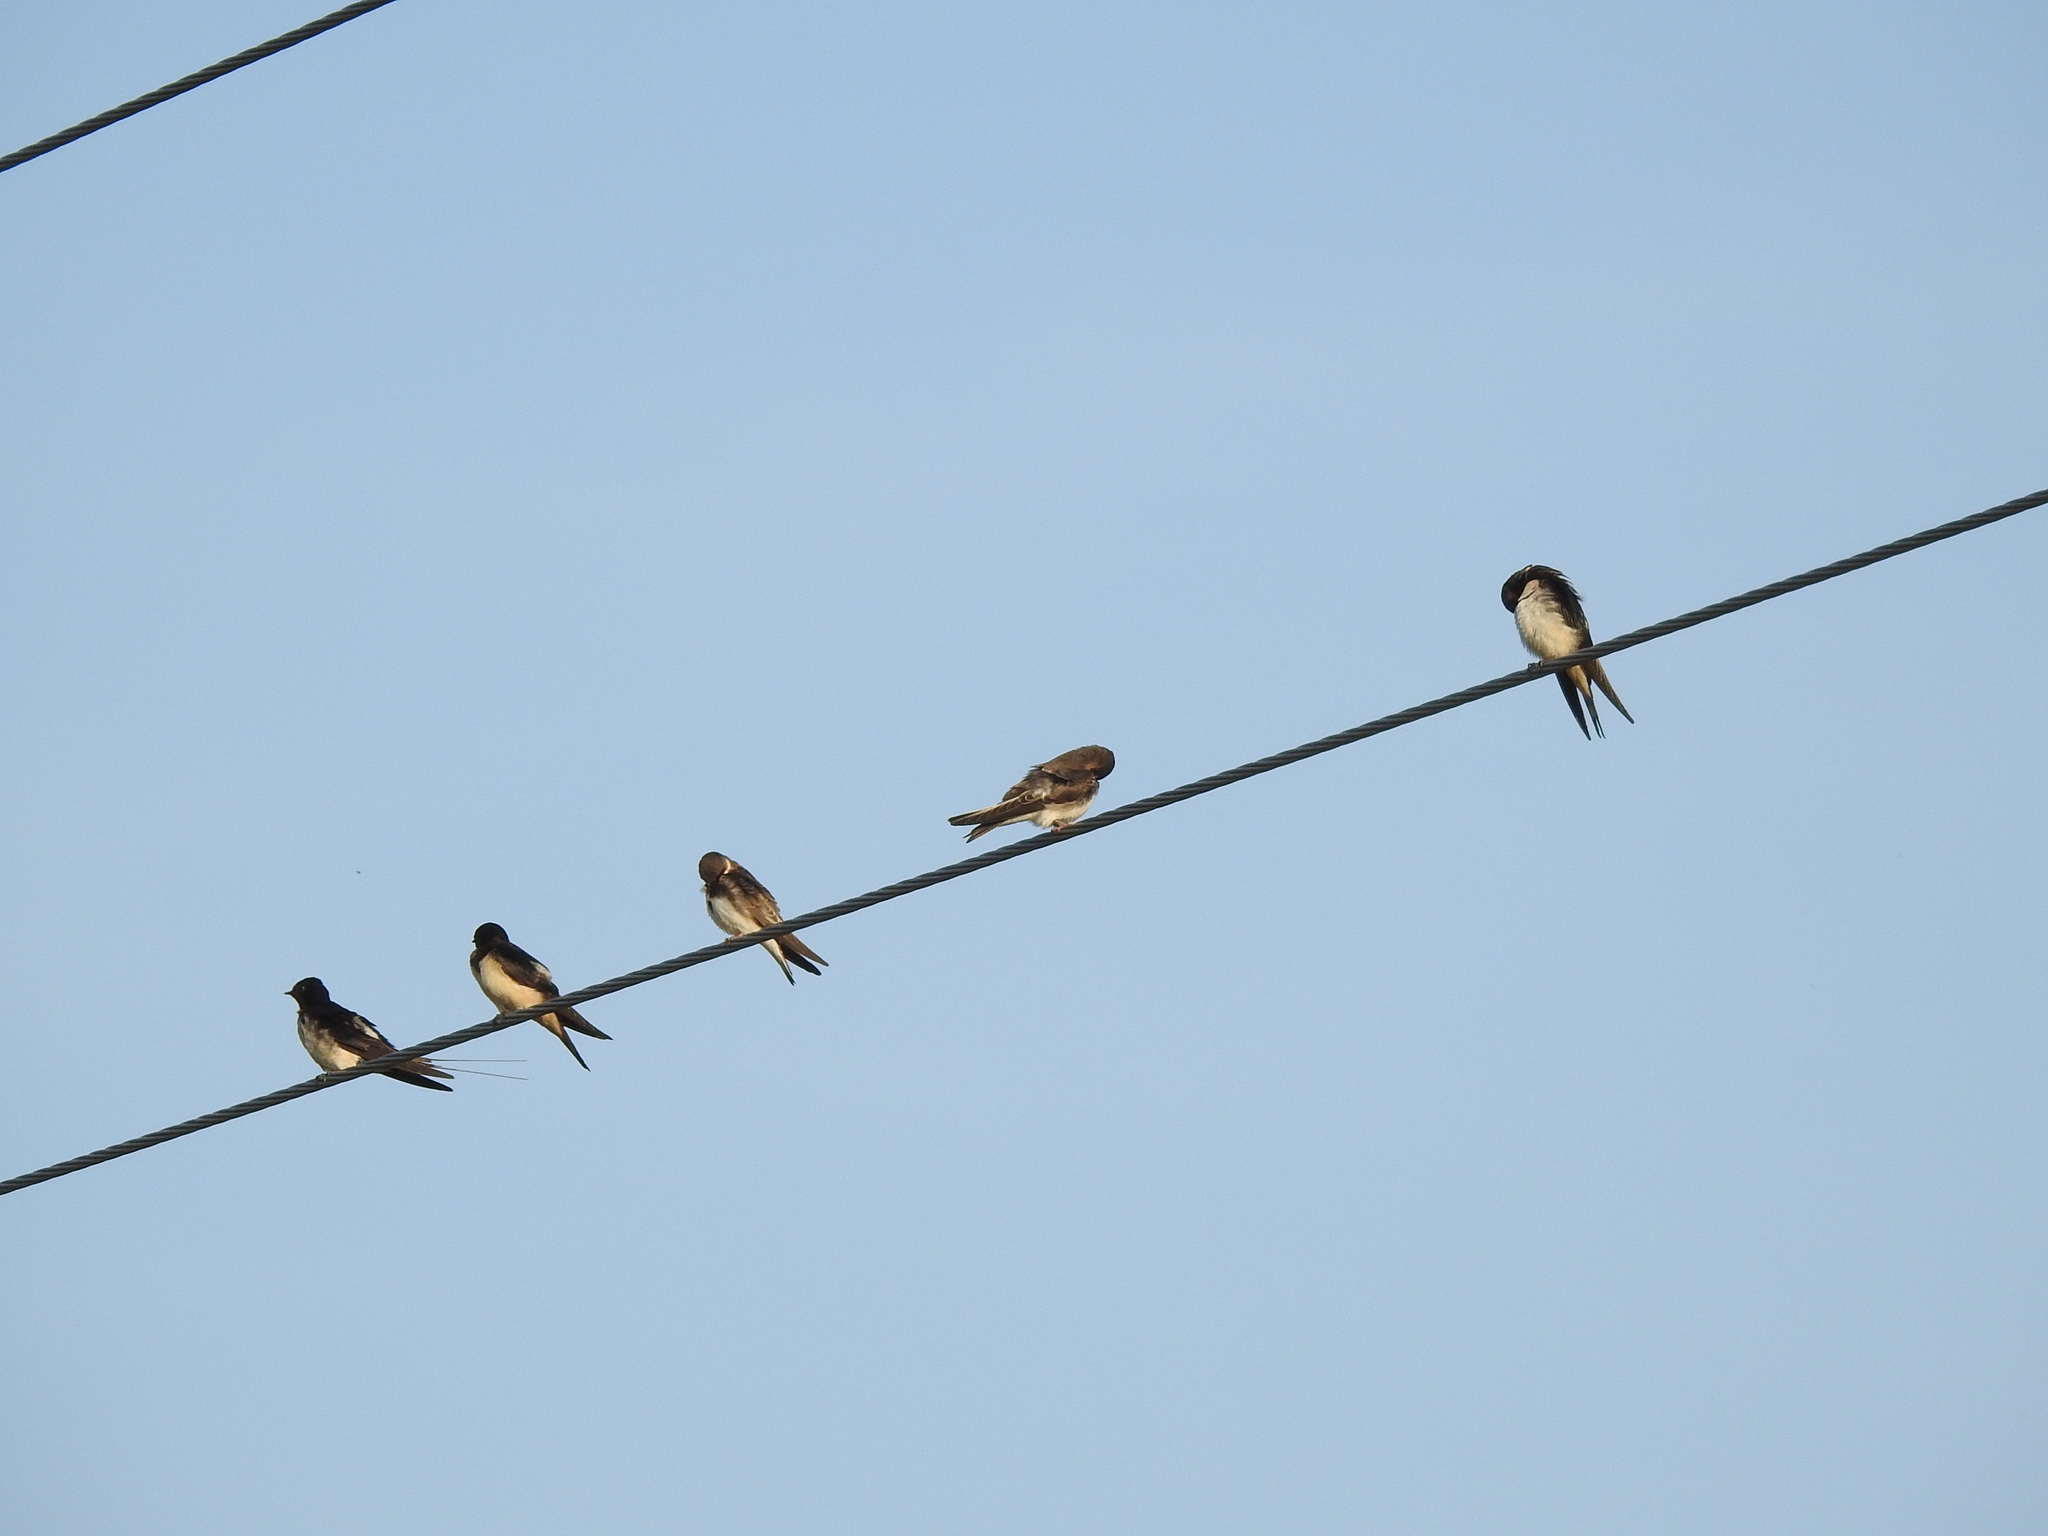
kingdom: Animalia
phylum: Chordata
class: Aves
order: Passeriformes
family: Hirundinidae
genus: Hirundo
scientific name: Hirundo rustica
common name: Barn swallow
